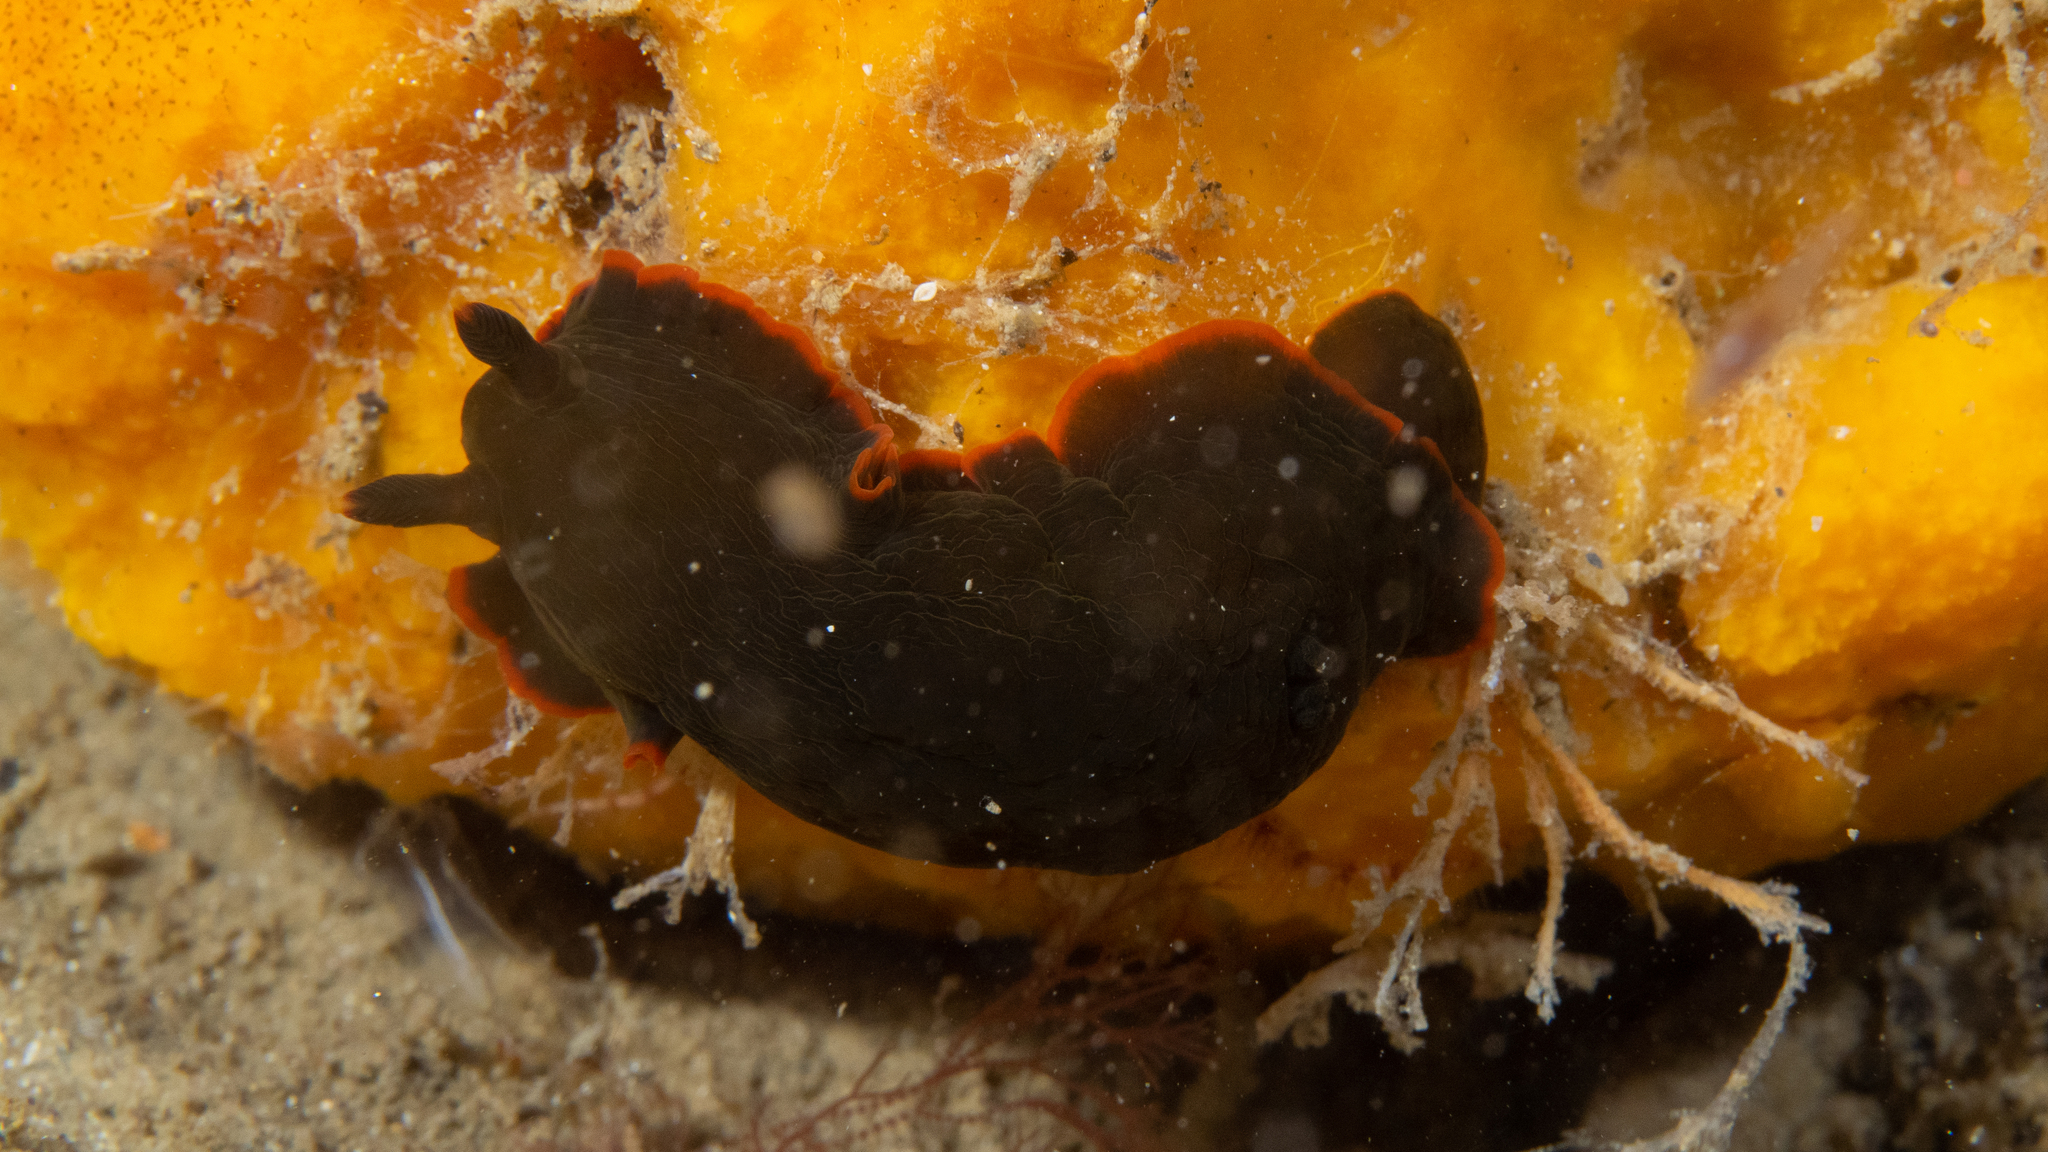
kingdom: Animalia
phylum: Mollusca
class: Gastropoda
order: Nudibranchia
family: Dendrodorididae
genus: Dendrodoris
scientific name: Dendrodoris arborescens
